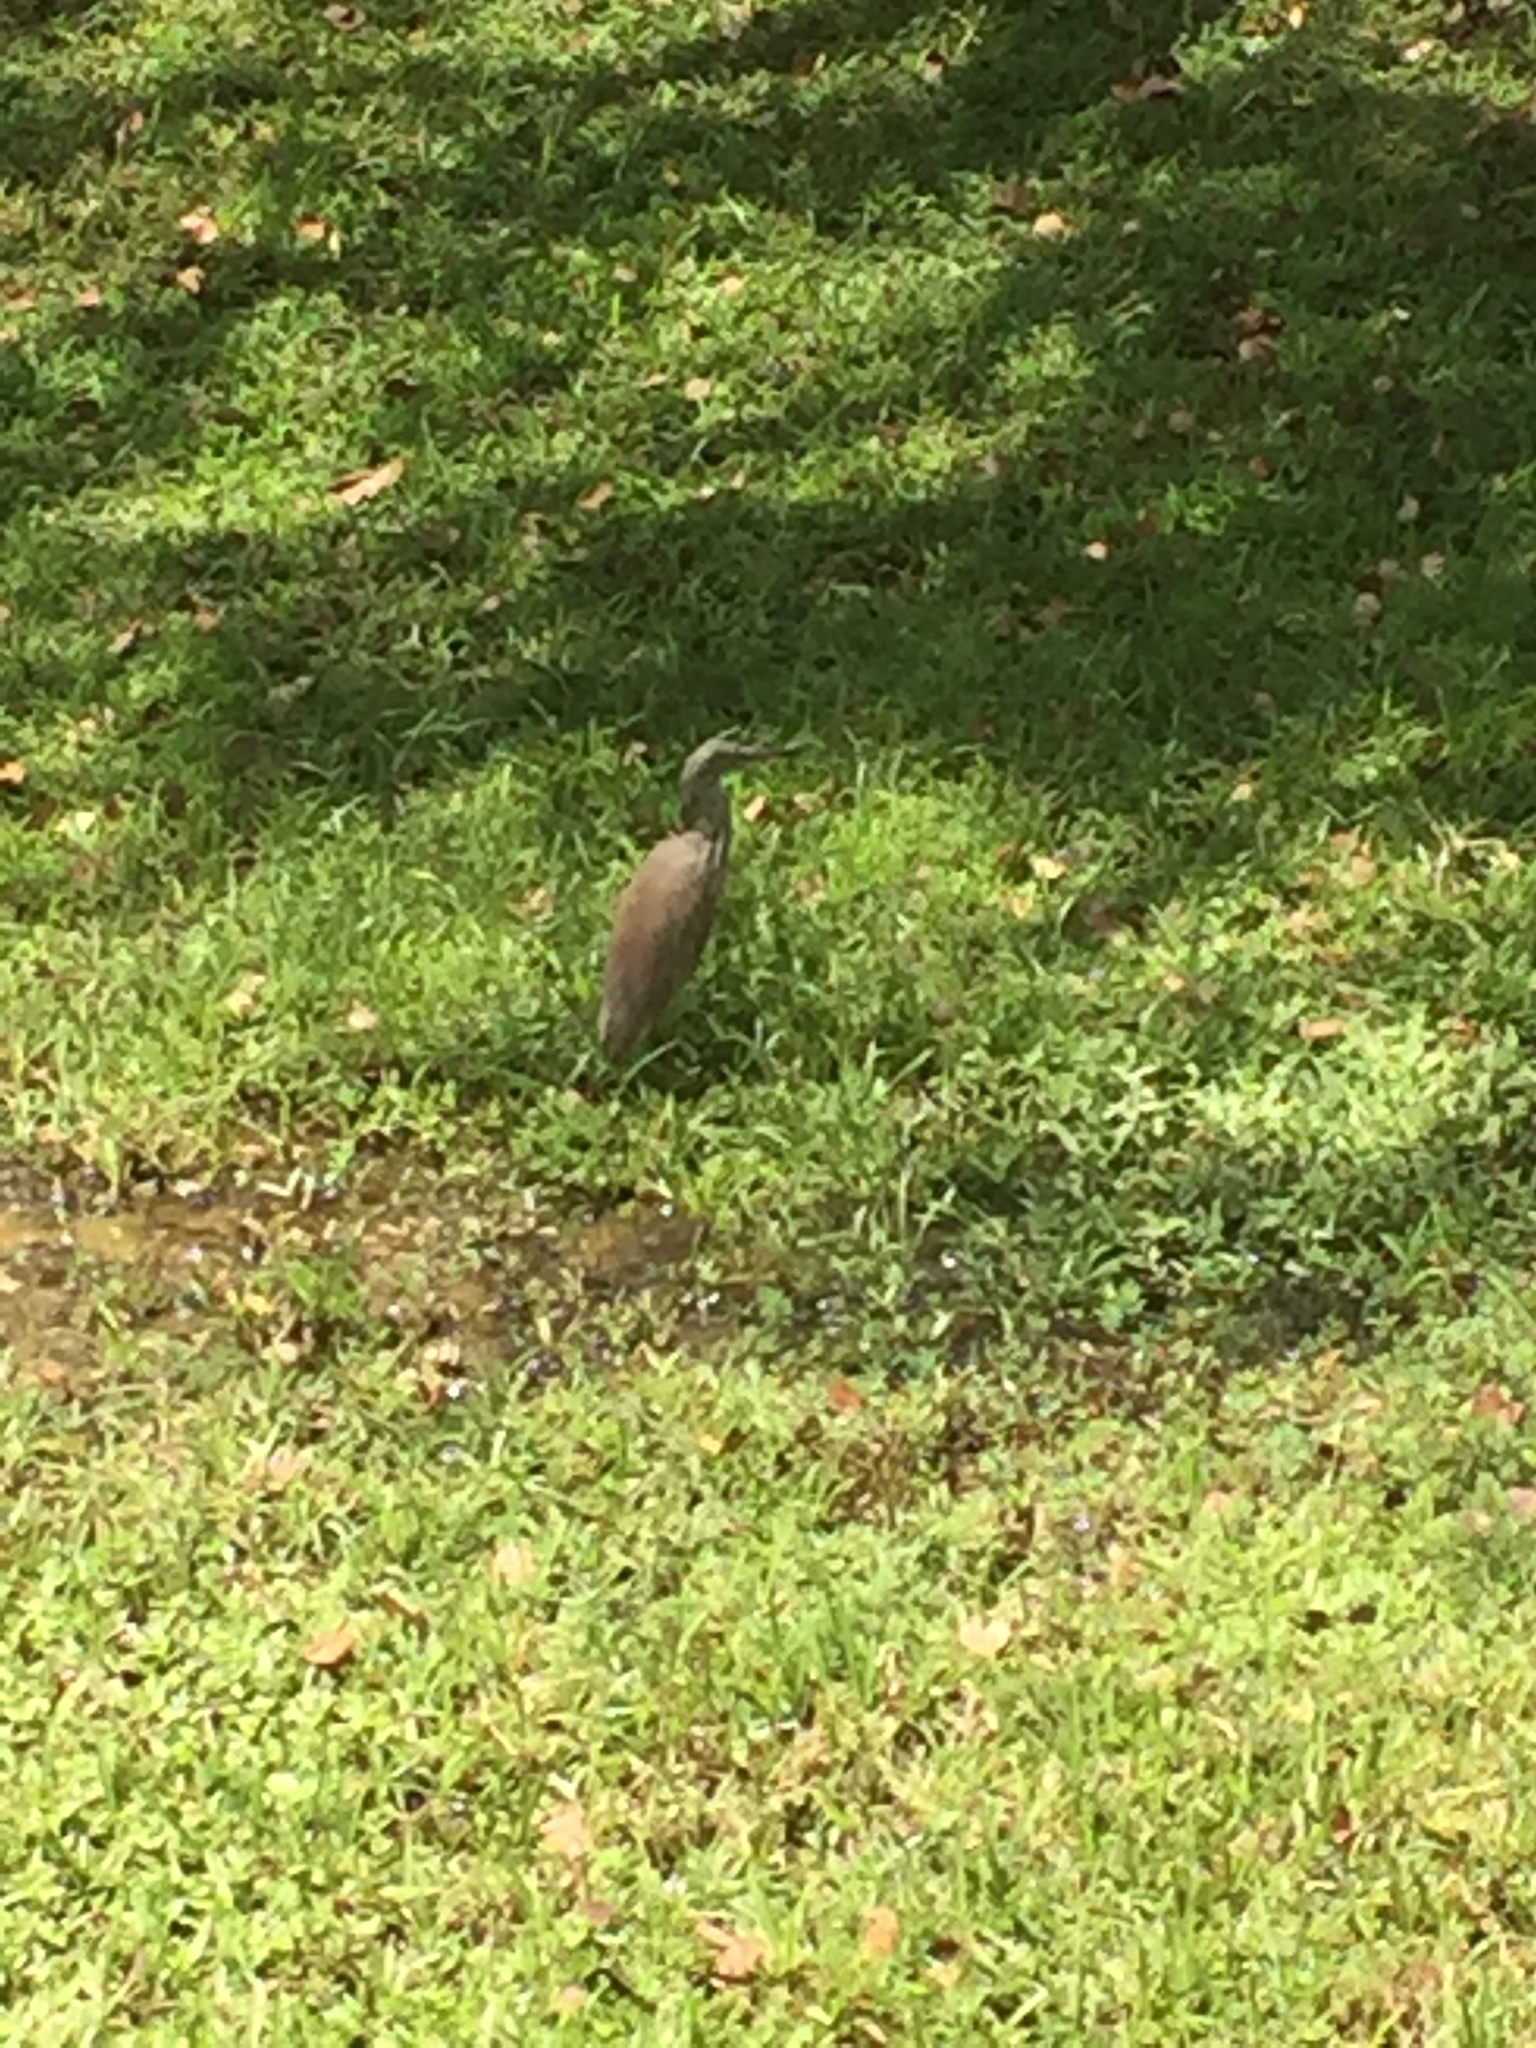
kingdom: Animalia
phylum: Chordata
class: Aves
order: Pelecaniformes
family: Ardeidae
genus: Ardeola
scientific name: Ardeola grayii
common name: Indian pond heron
